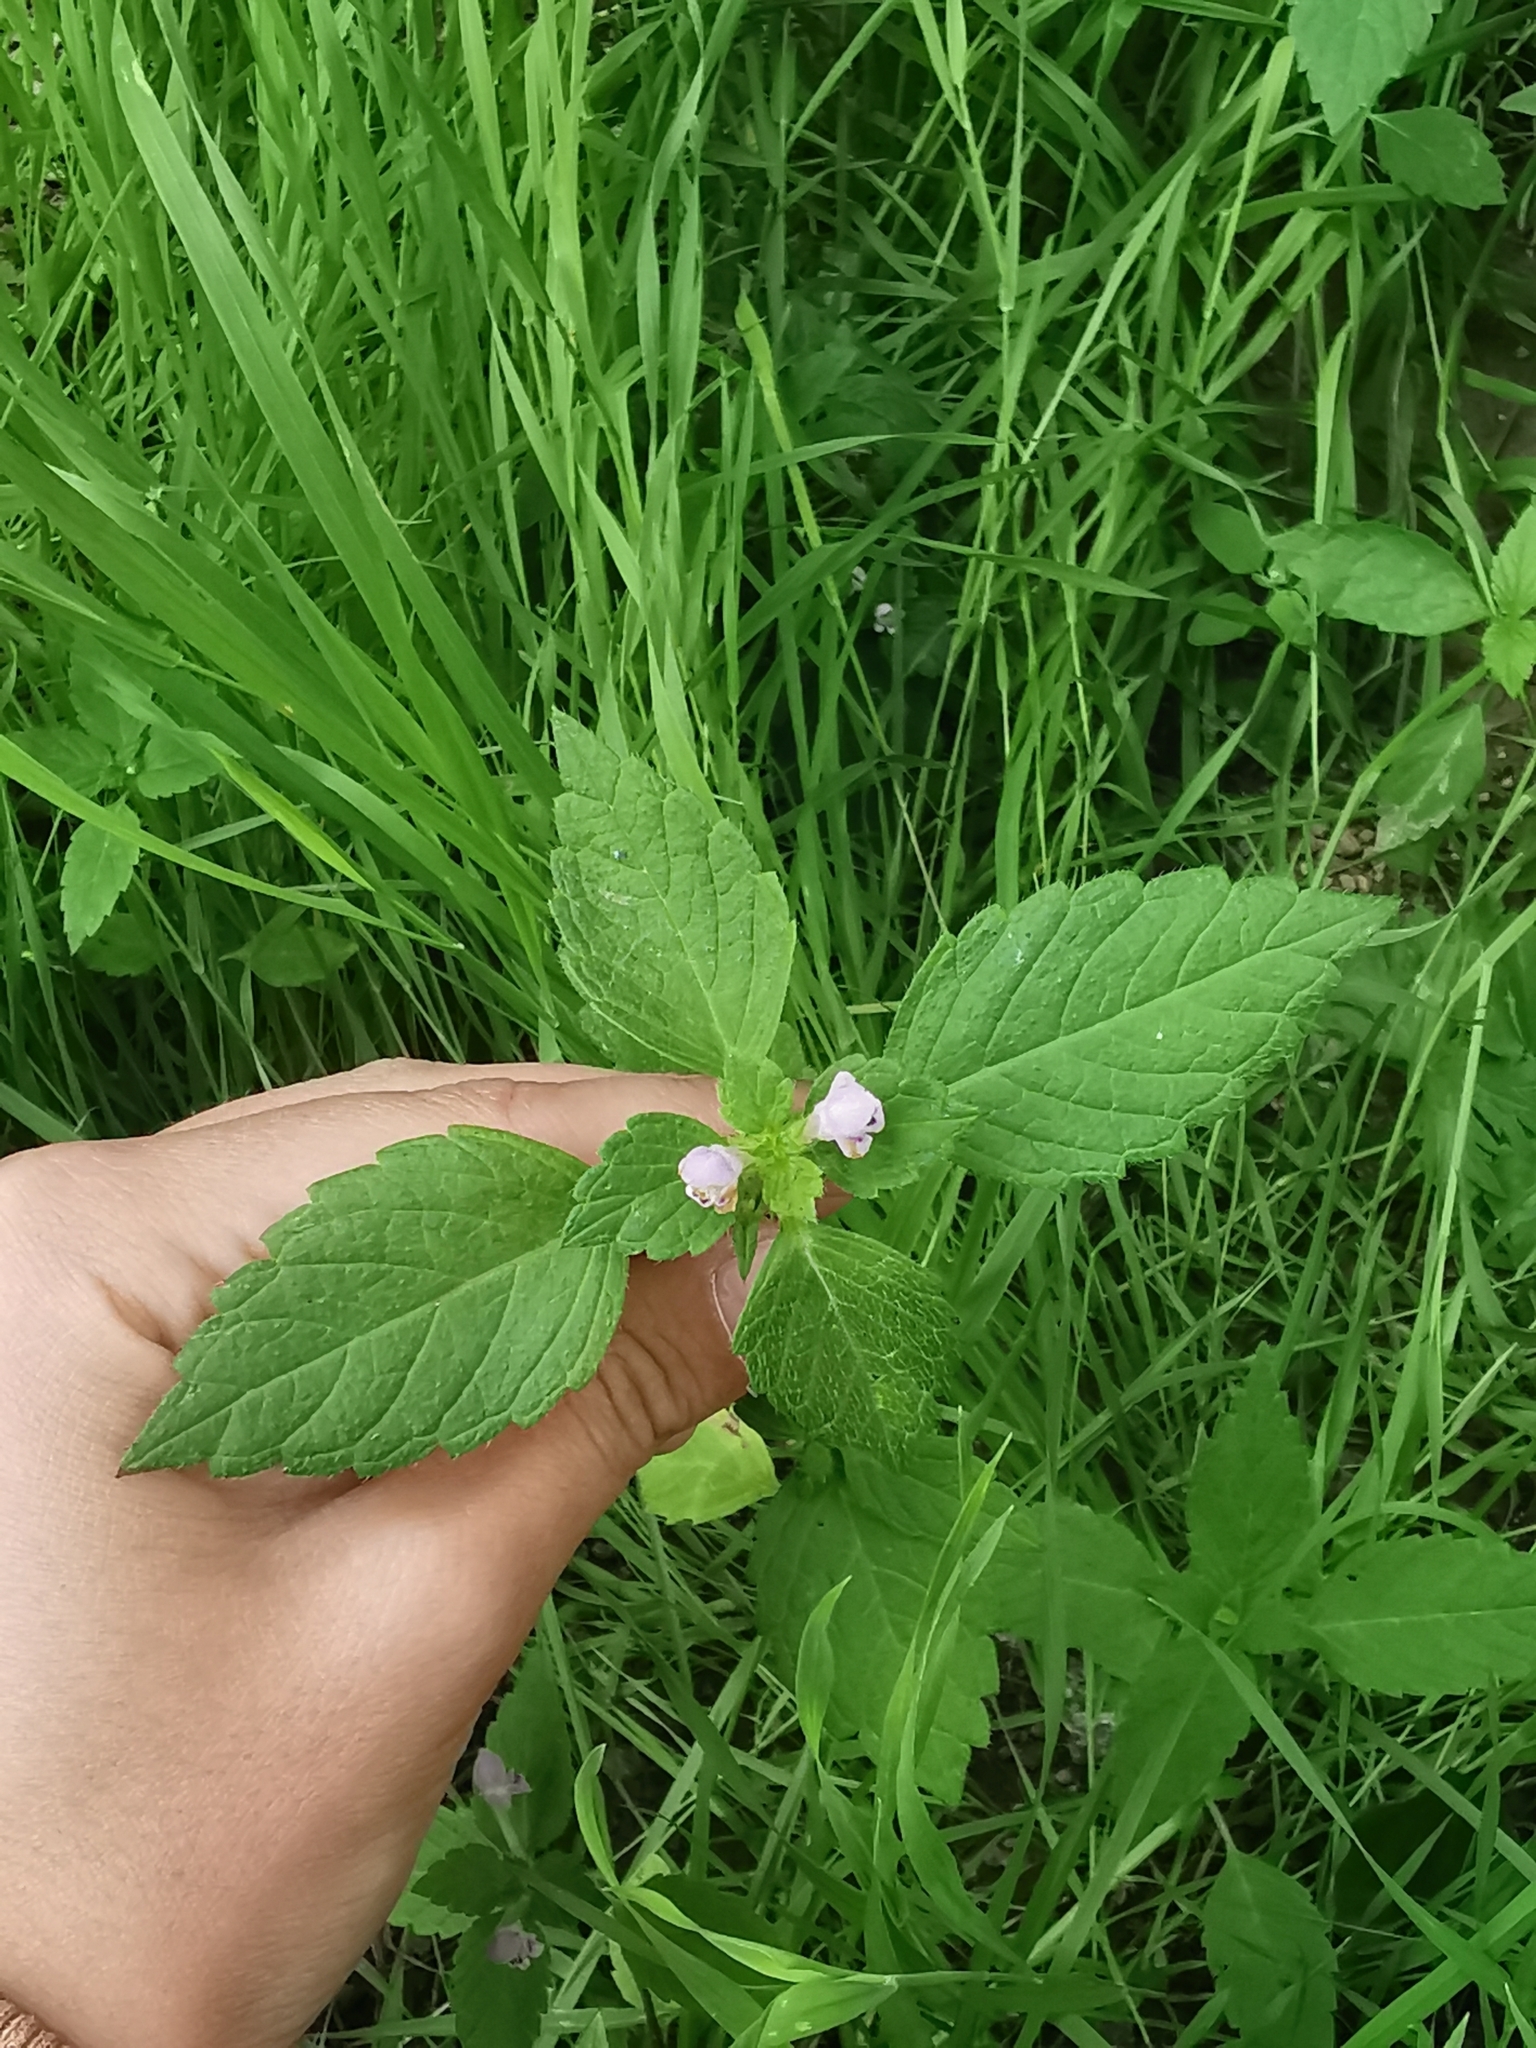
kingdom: Plantae
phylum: Tracheophyta
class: Magnoliopsida
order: Lamiales
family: Lamiaceae
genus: Galeopsis
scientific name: Galeopsis bifida
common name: Bifid hemp-nettle
